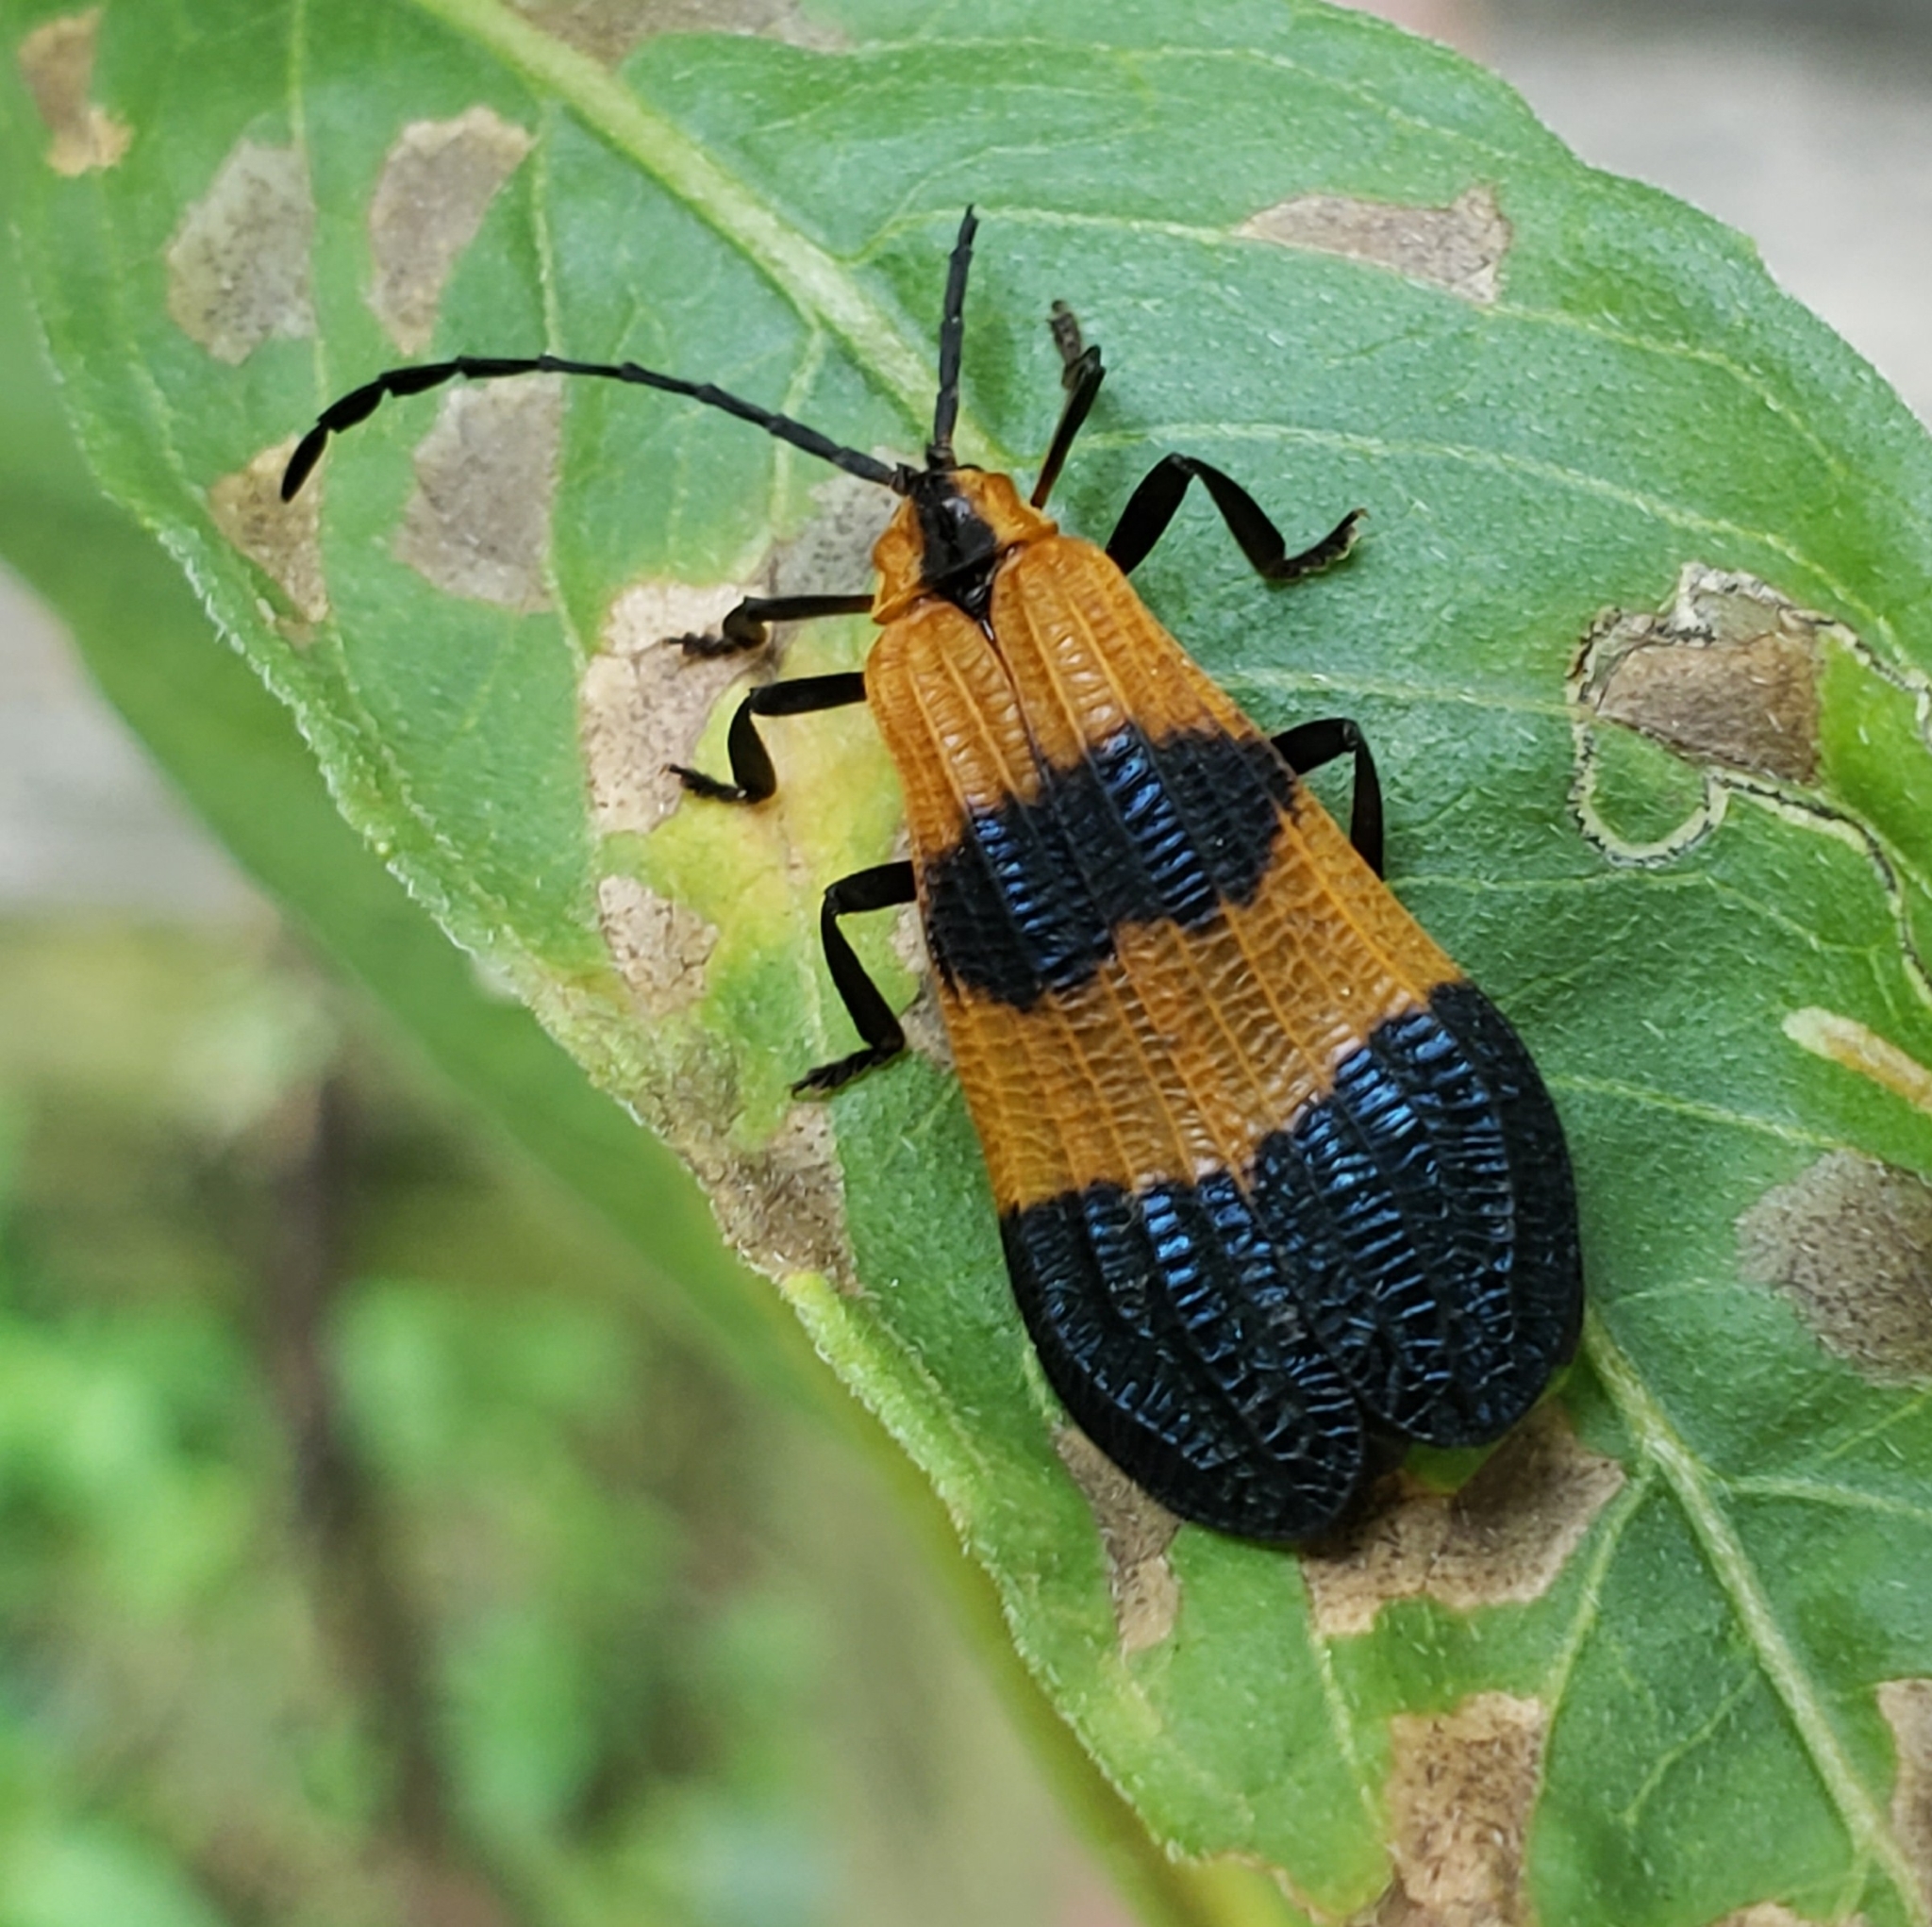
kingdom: Animalia
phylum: Arthropoda
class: Insecta
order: Coleoptera
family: Lycidae
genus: Calopteron
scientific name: Calopteron terminale
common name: End band net-winged beetle
